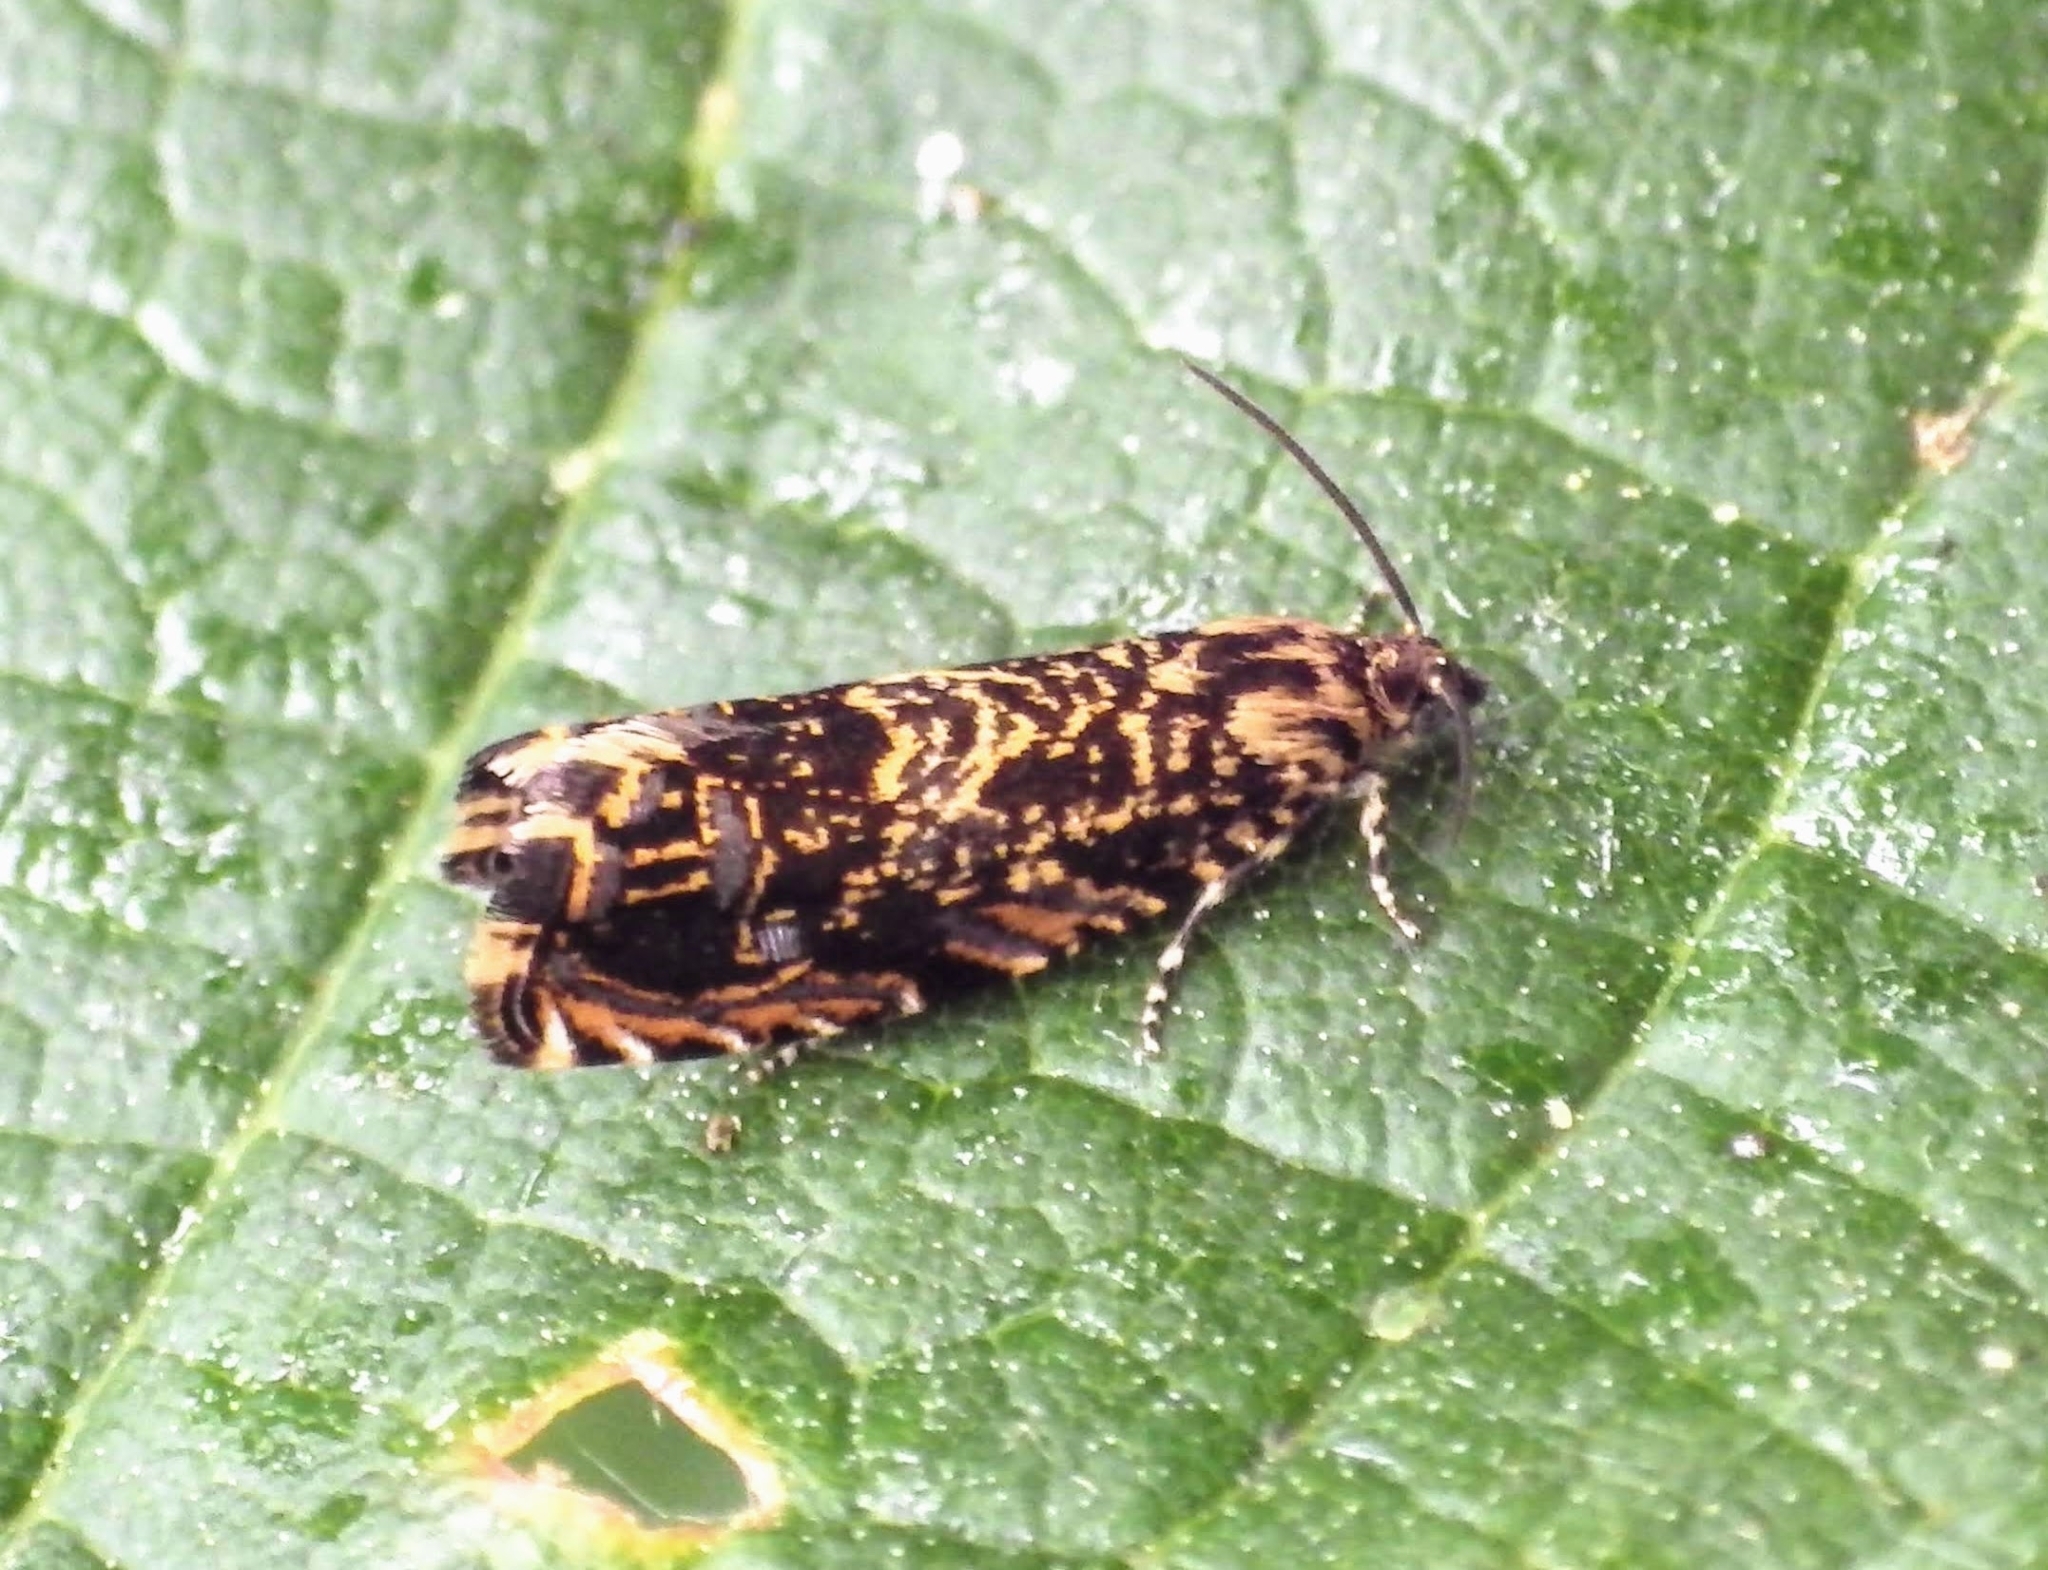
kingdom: Animalia
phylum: Arthropoda
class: Insecta
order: Lepidoptera
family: Tortricidae
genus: Enarmonia
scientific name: Enarmonia formosana
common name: Cherry bark tortrix
